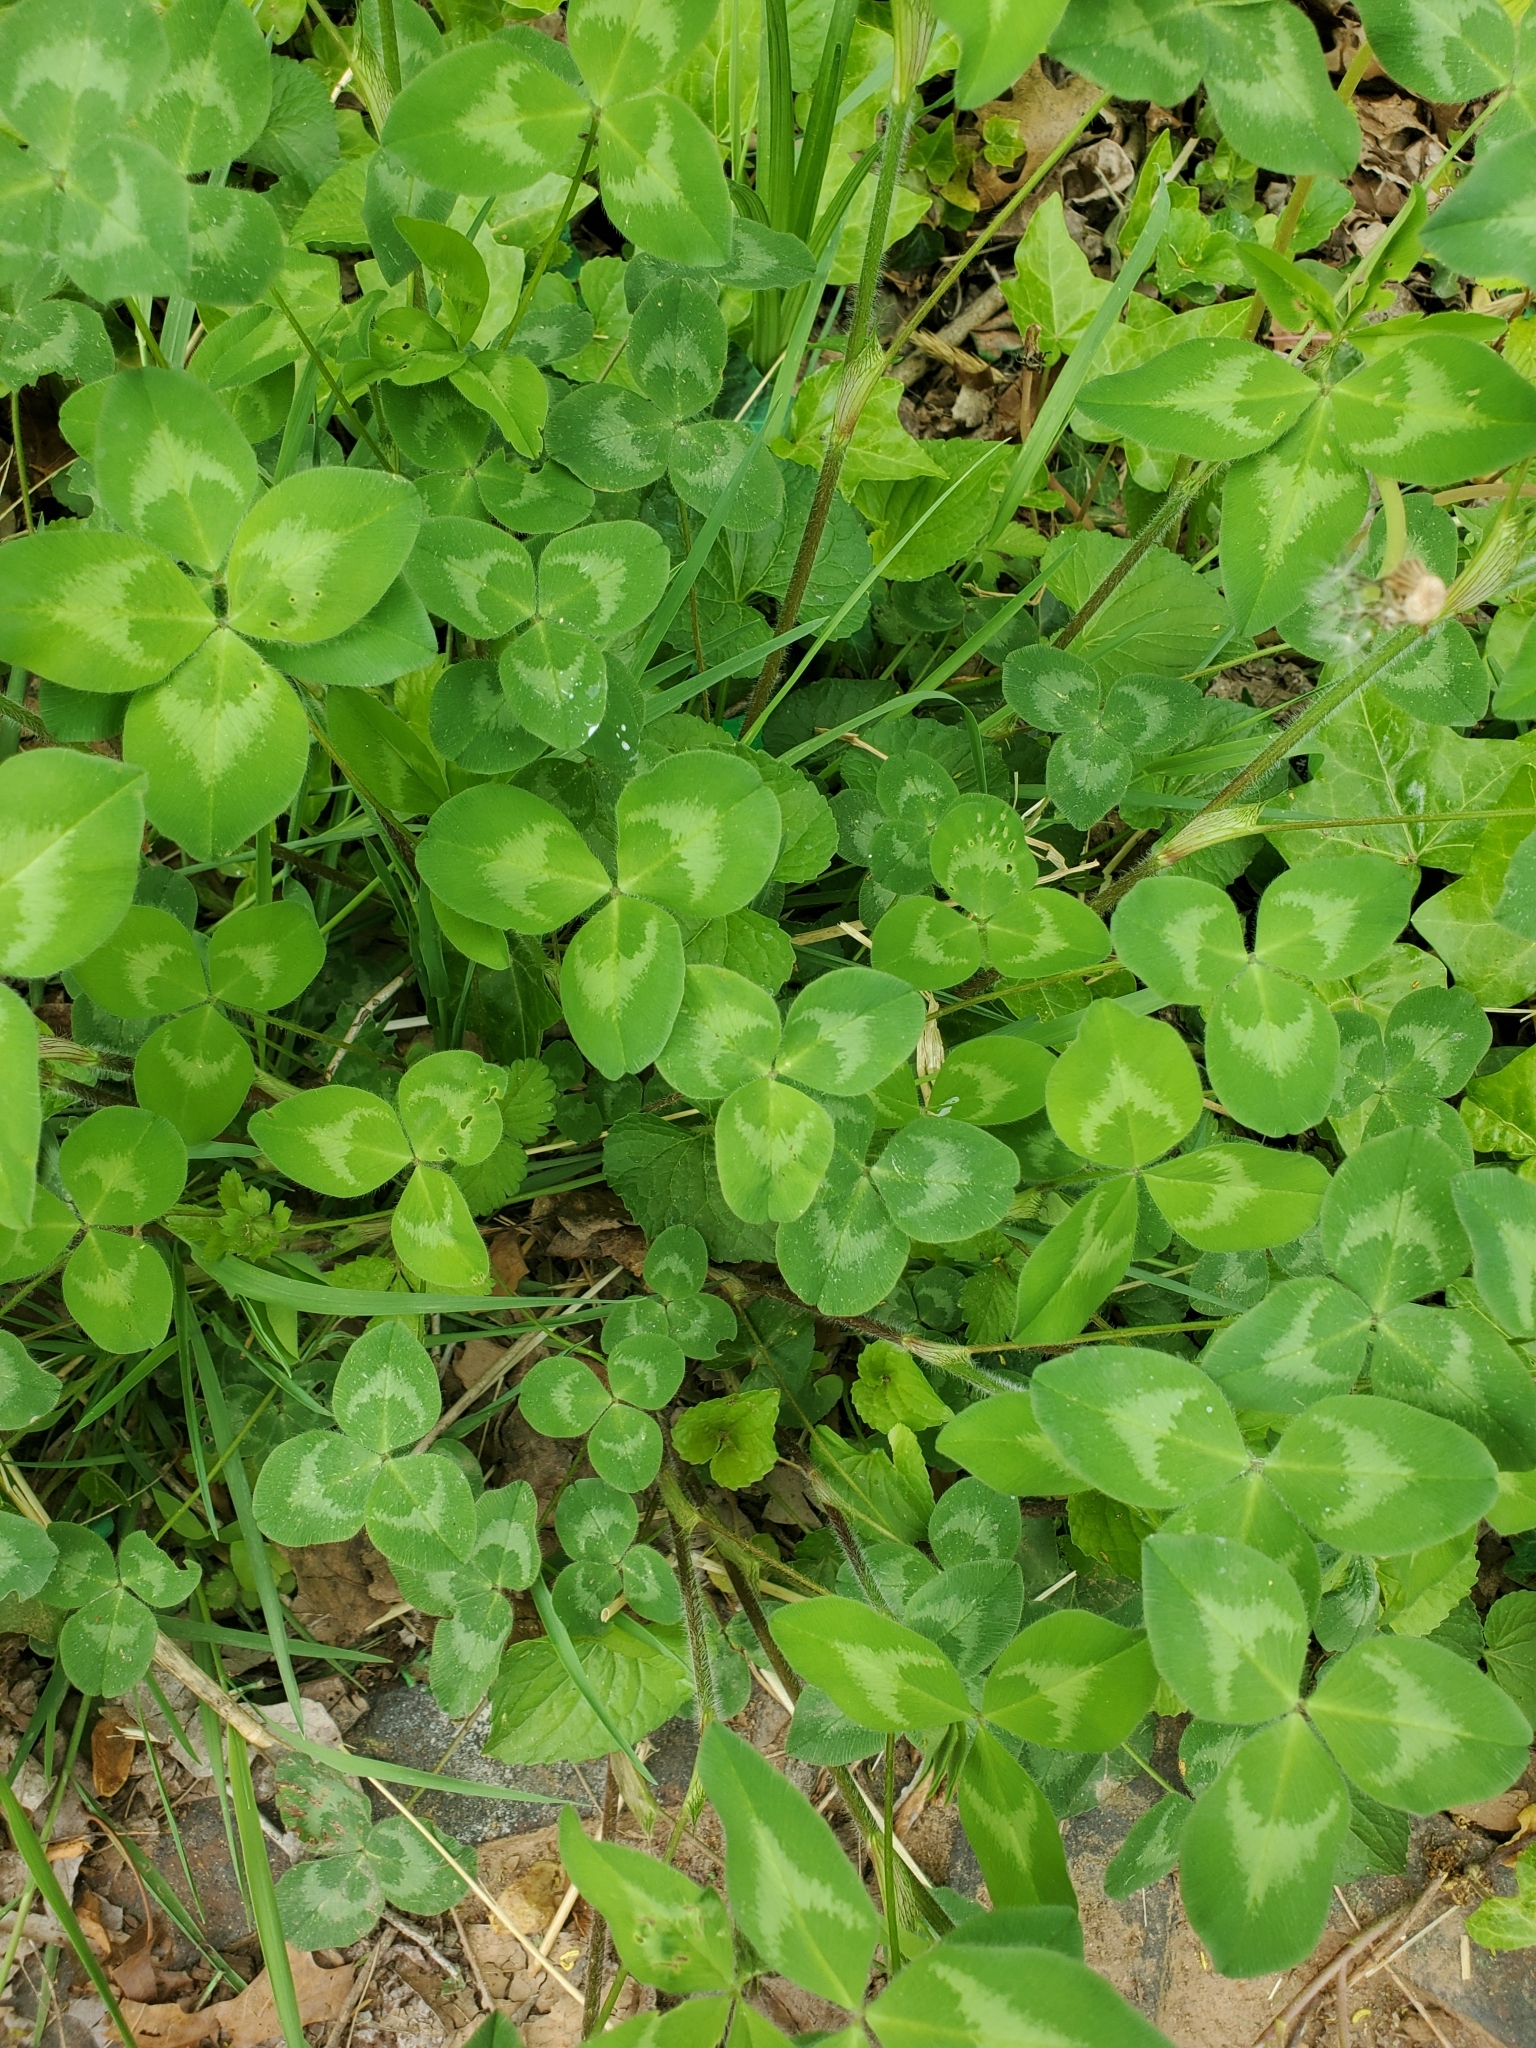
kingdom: Plantae
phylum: Tracheophyta
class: Magnoliopsida
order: Fabales
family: Fabaceae
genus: Trifolium
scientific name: Trifolium pratense
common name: Red clover
